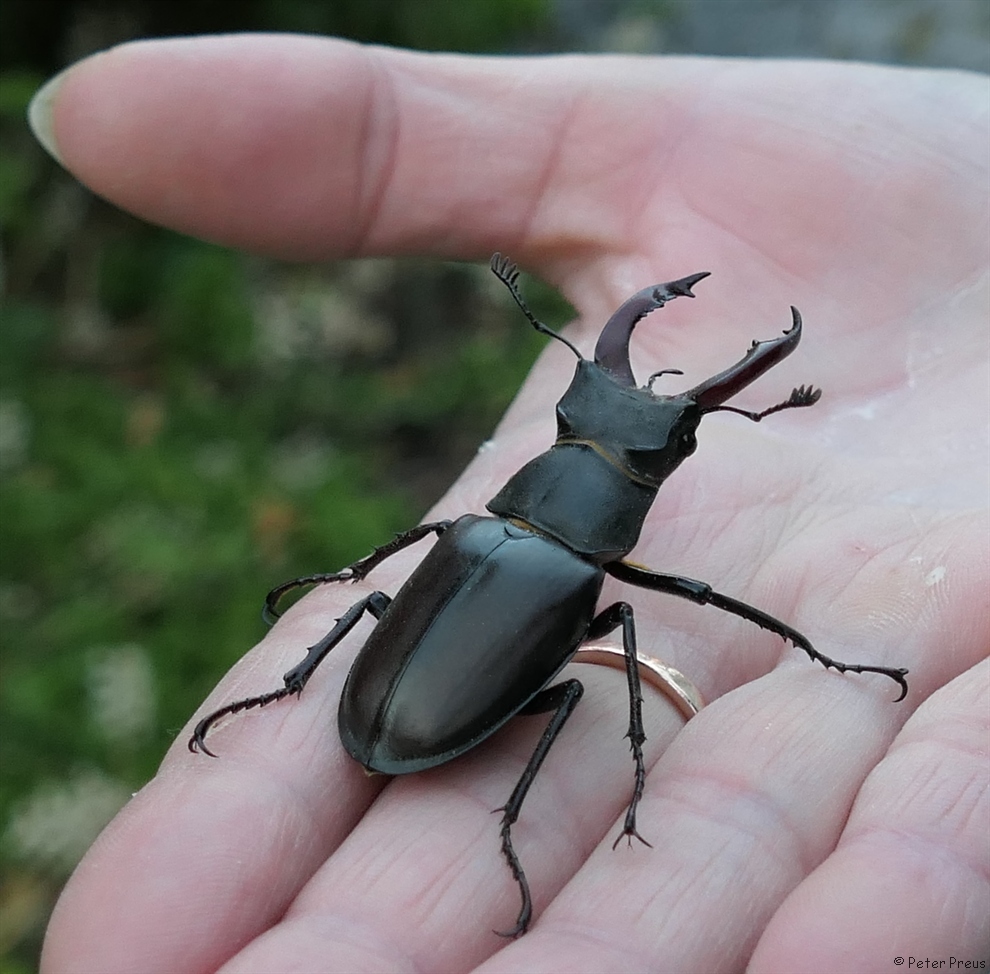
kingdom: Animalia
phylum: Arthropoda
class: Insecta
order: Coleoptera
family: Lucanidae
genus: Lucanus
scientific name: Lucanus cervus
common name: Stag beetle
